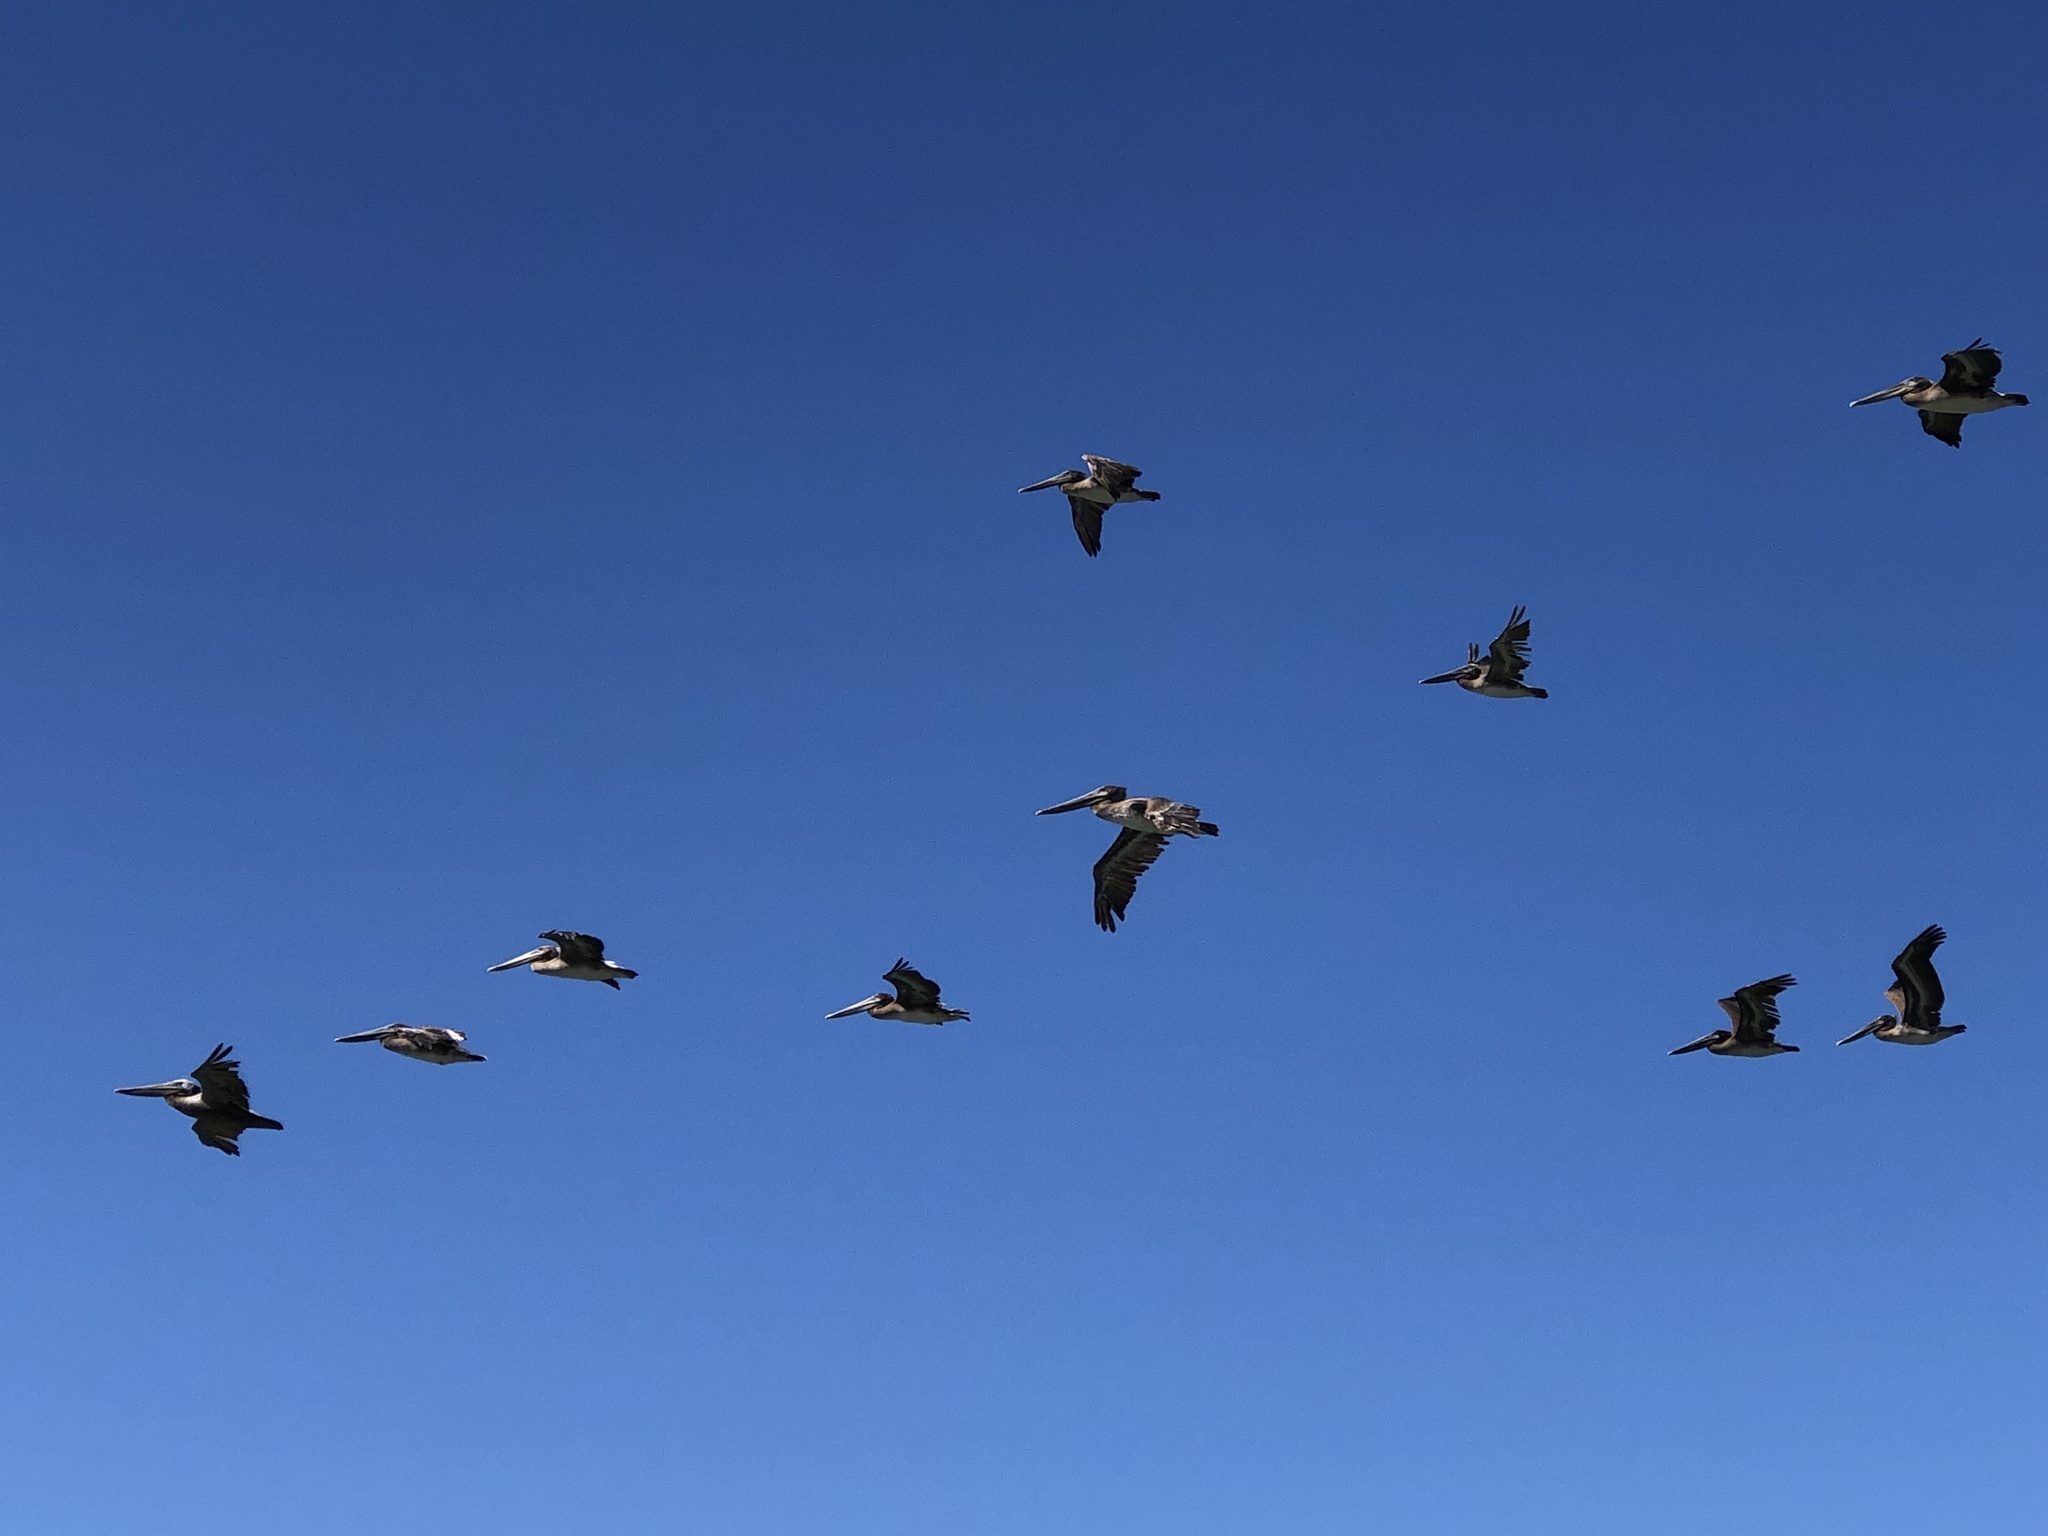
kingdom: Animalia
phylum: Chordata
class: Aves
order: Pelecaniformes
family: Pelecanidae
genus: Pelecanus
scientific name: Pelecanus occidentalis
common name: Brown pelican
